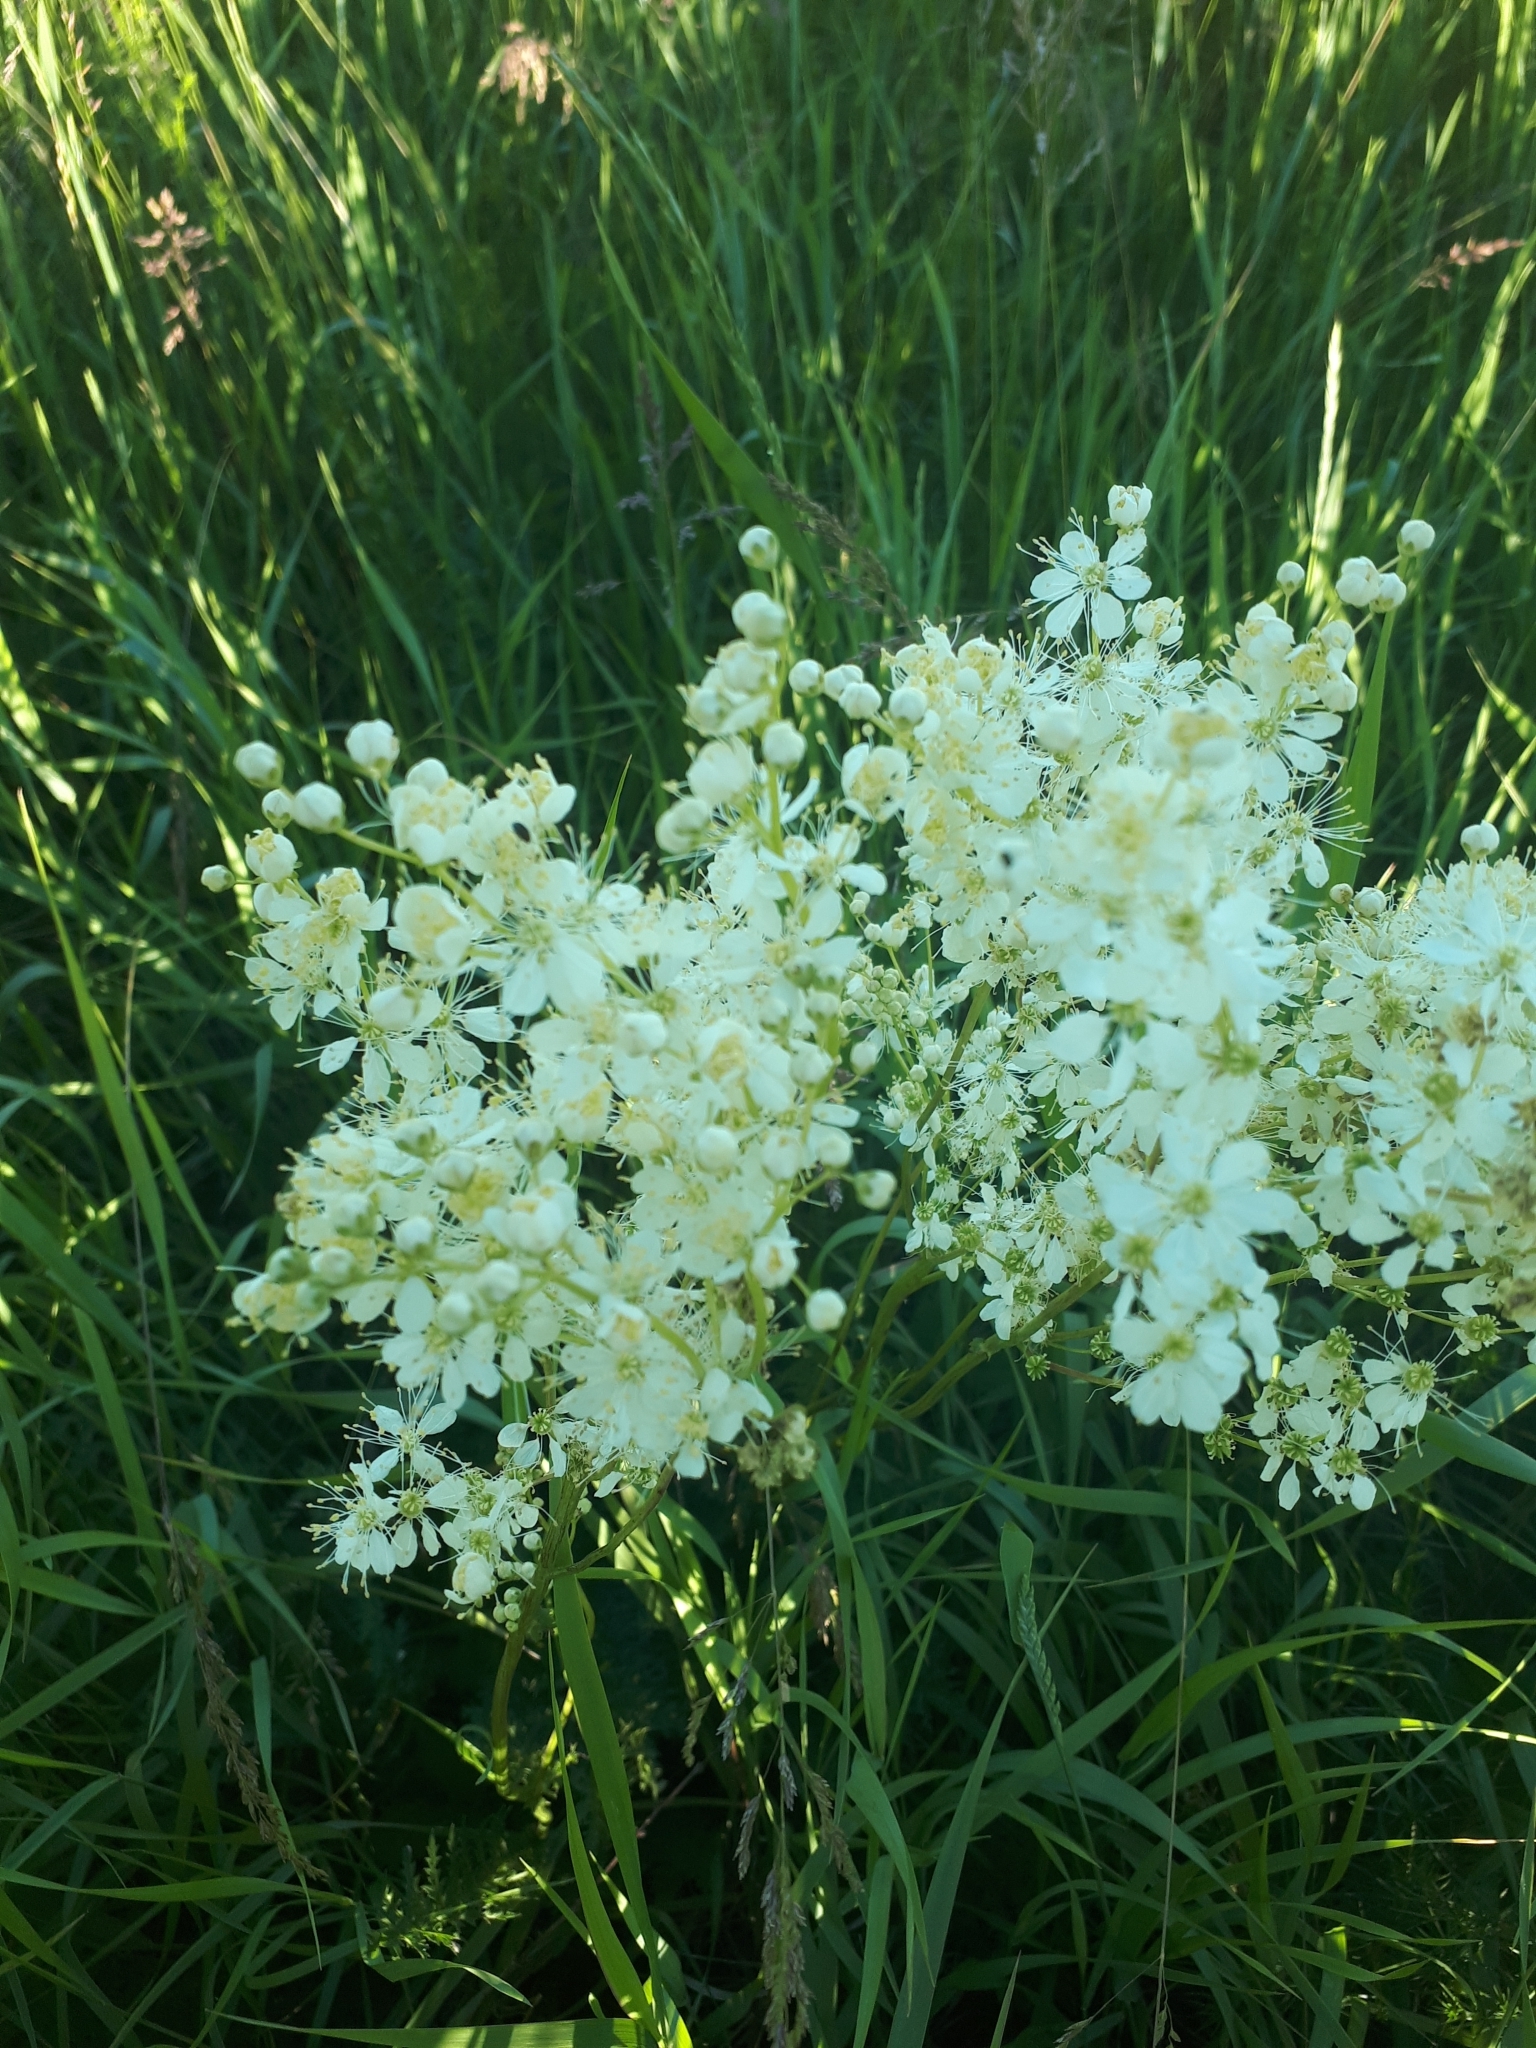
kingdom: Plantae
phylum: Tracheophyta
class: Magnoliopsida
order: Rosales
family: Rosaceae
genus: Filipendula
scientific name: Filipendula vulgaris
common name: Dropwort
